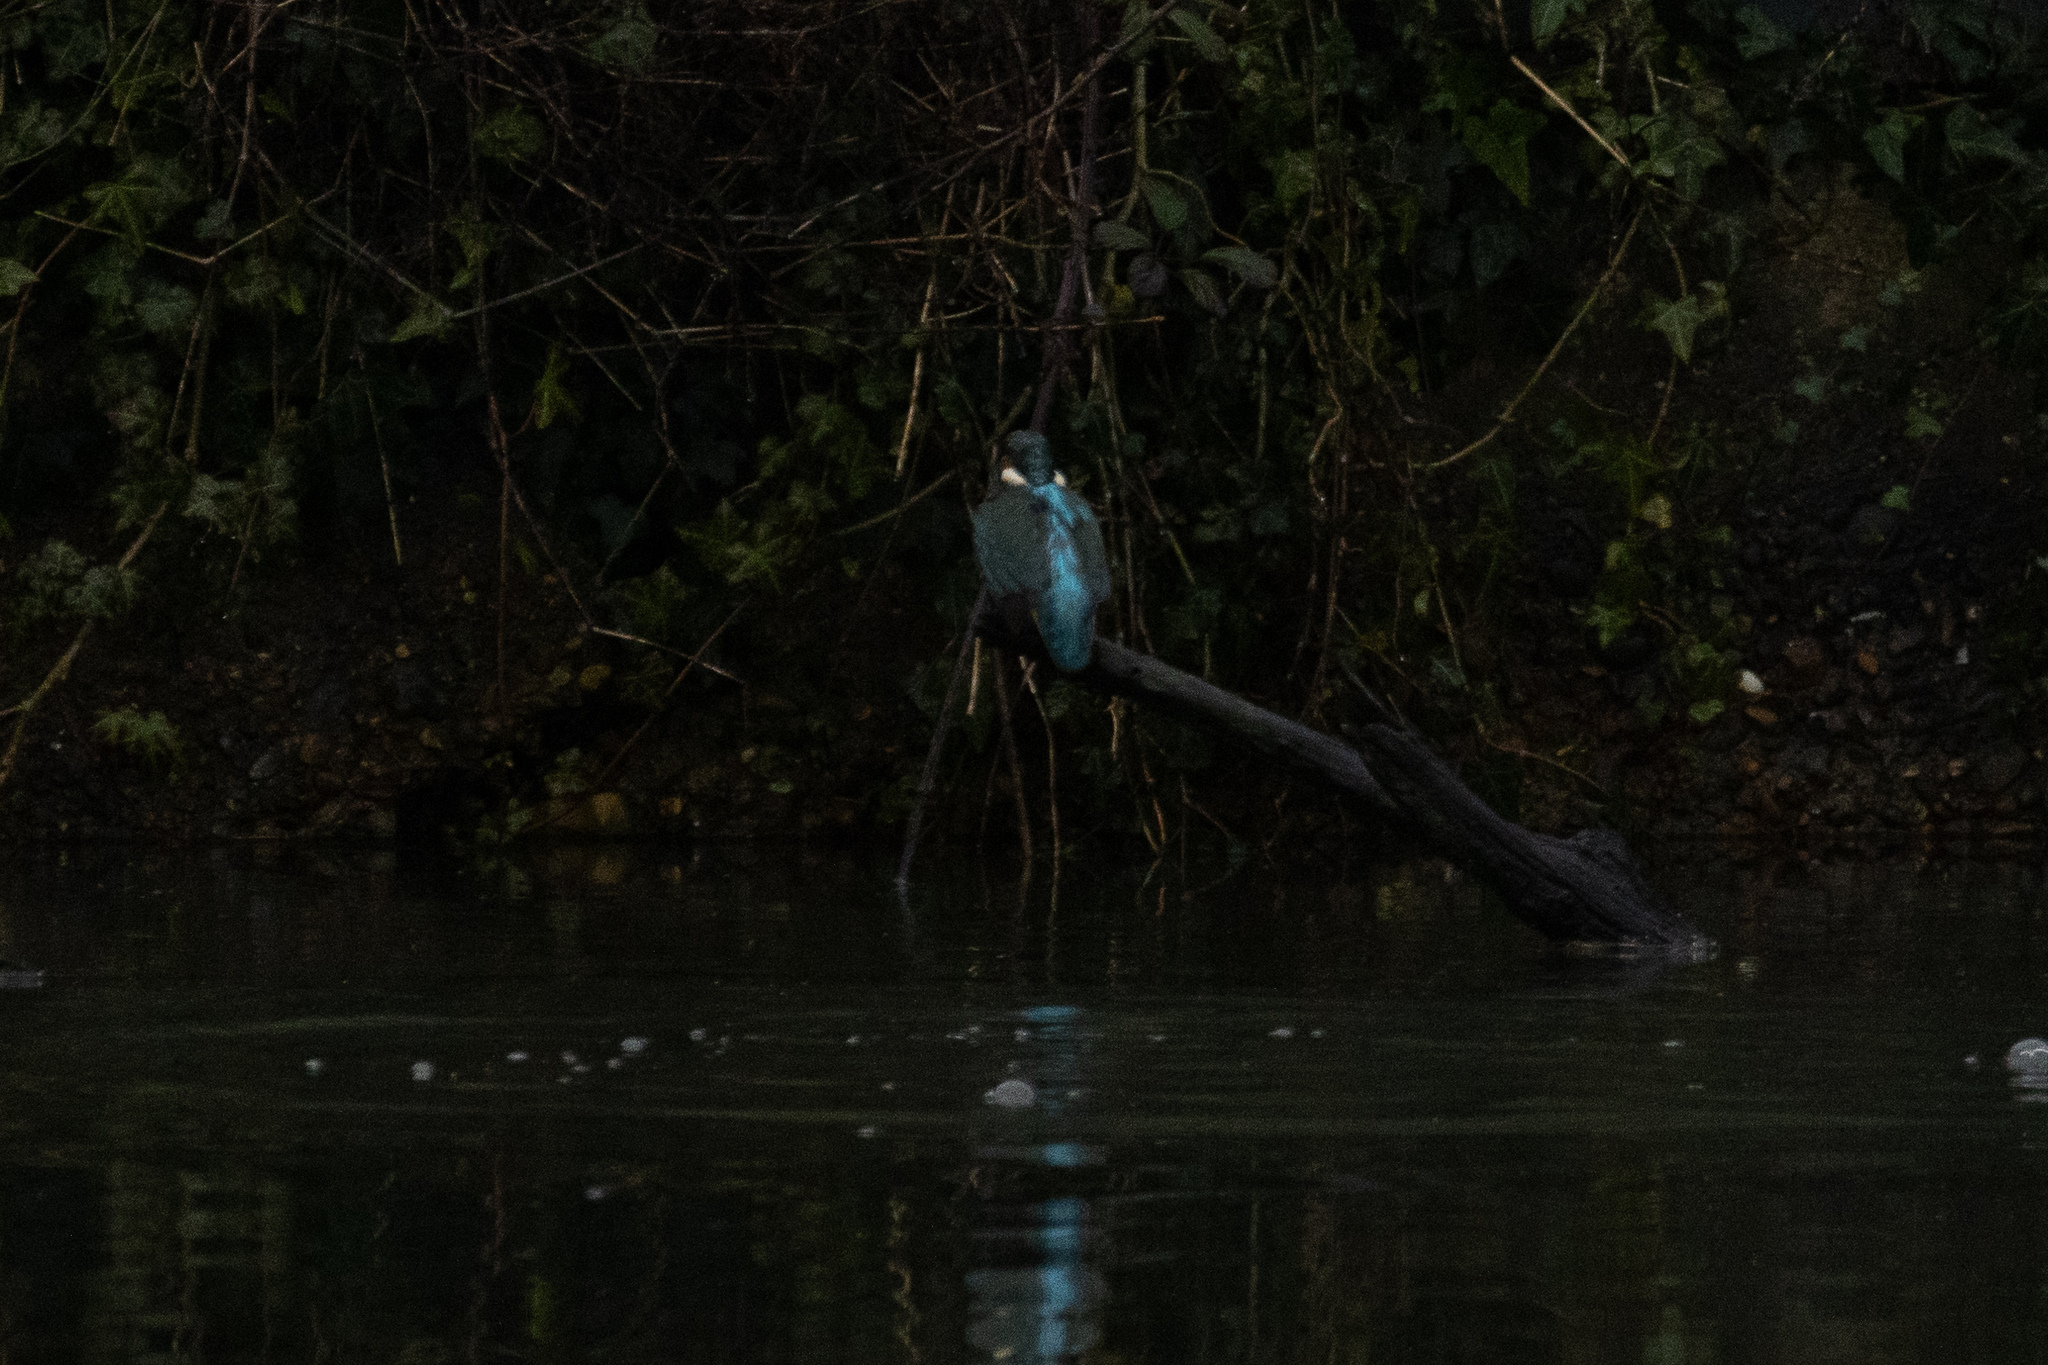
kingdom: Animalia
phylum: Chordata
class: Aves
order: Coraciiformes
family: Alcedinidae
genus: Alcedo
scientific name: Alcedo atthis
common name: Common kingfisher
